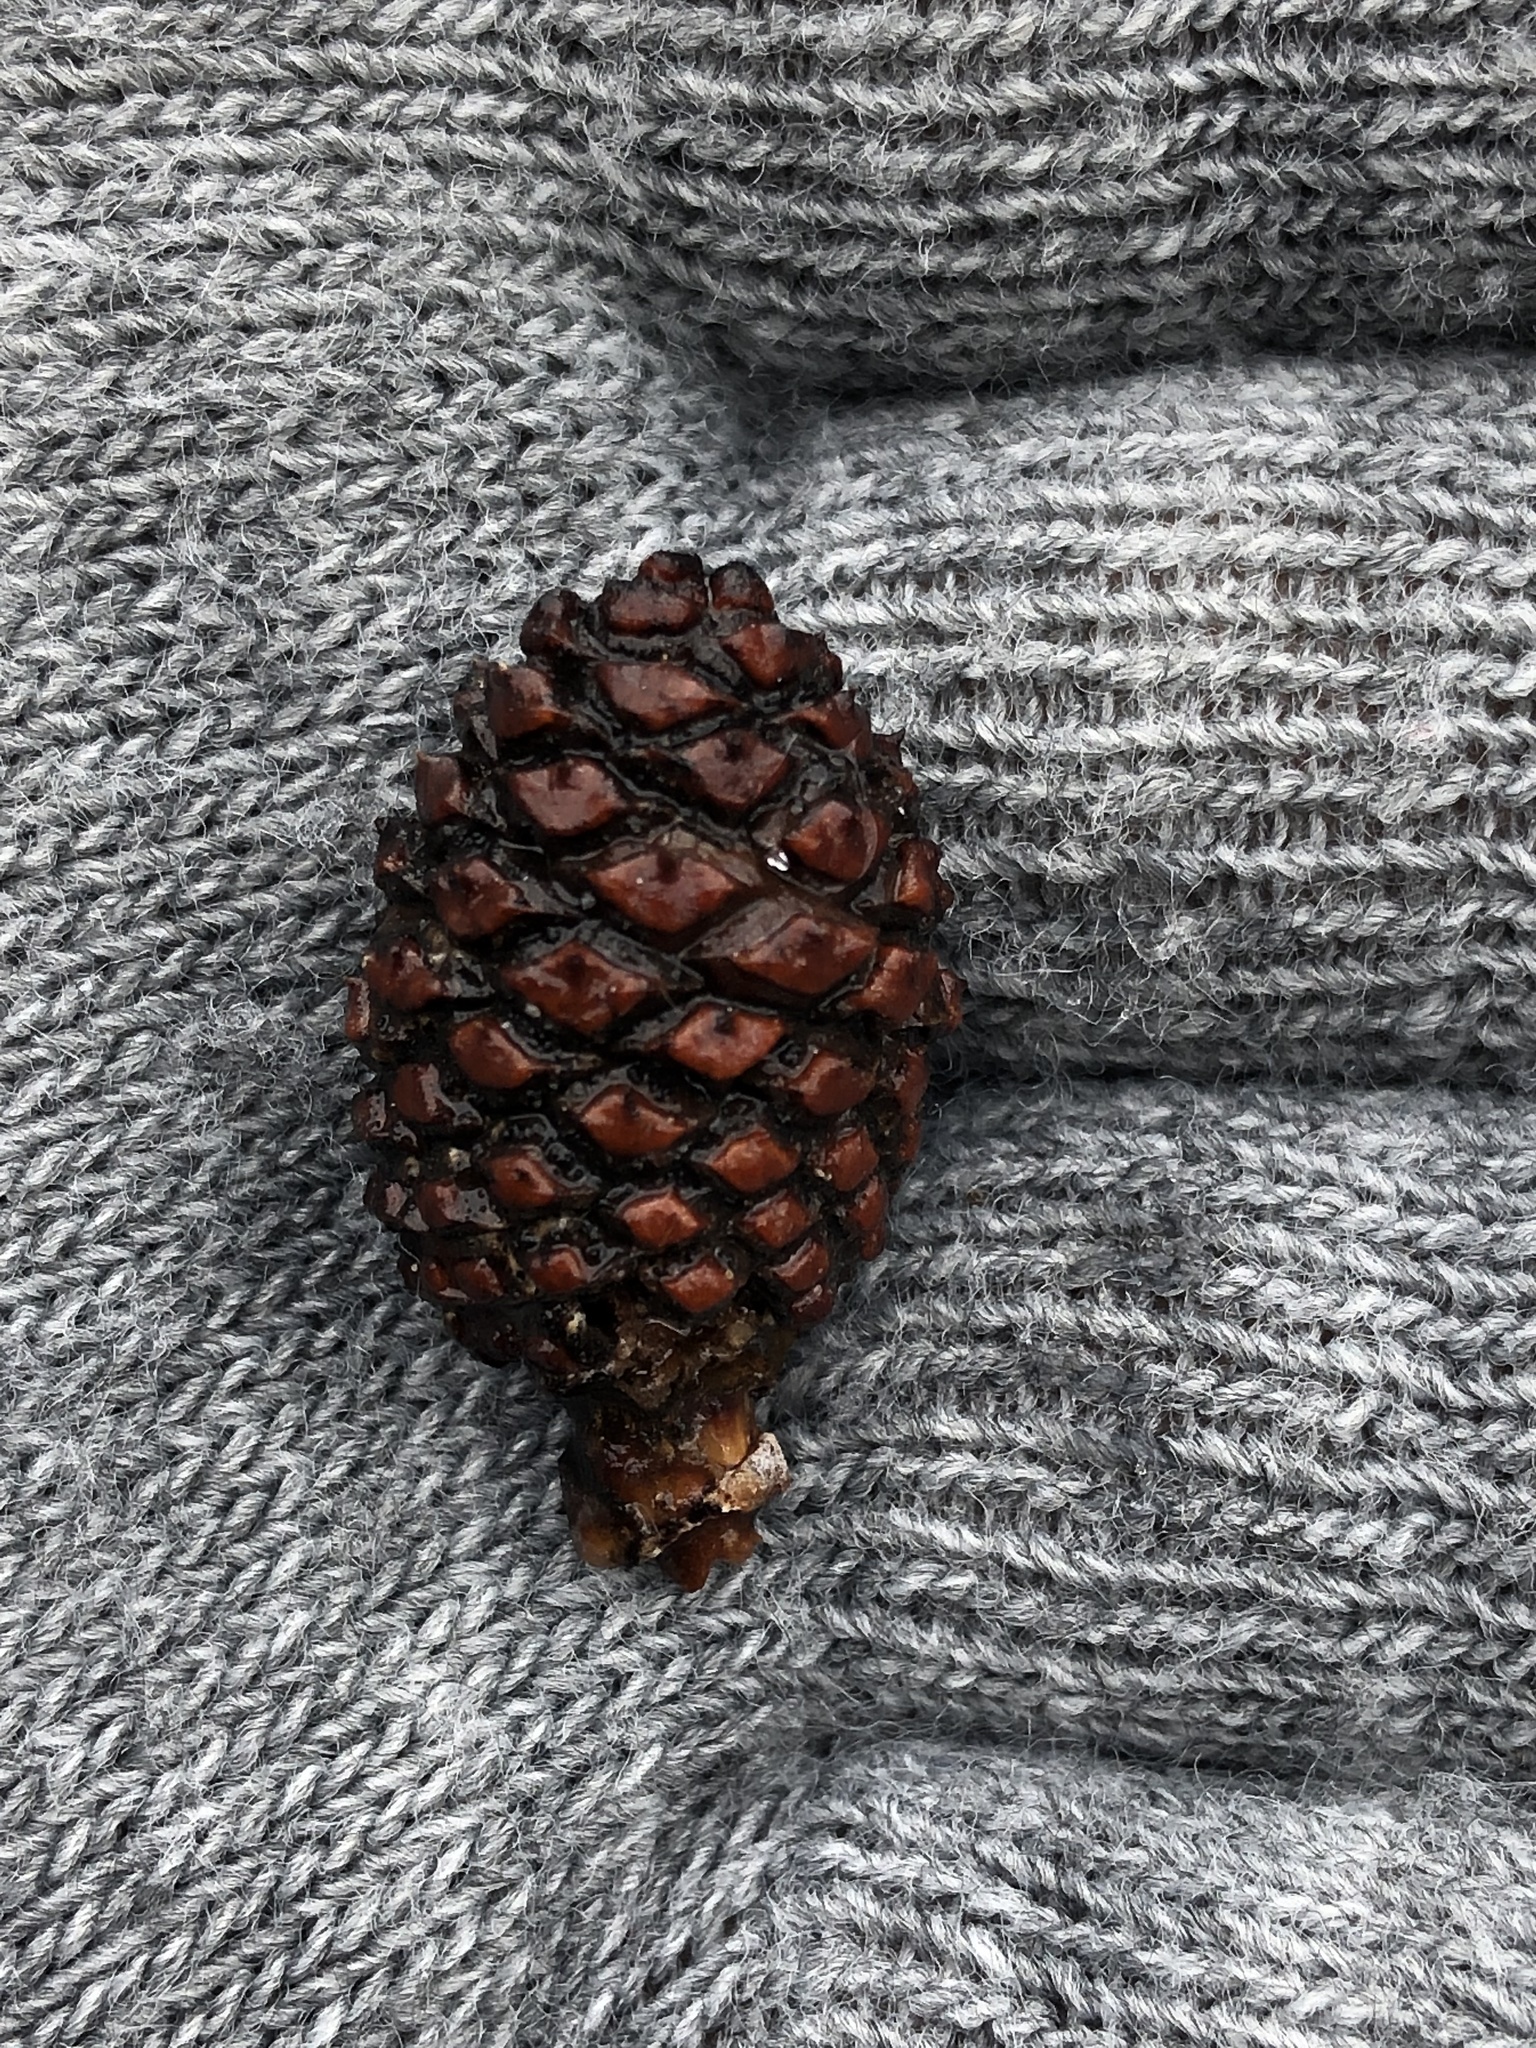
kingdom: Plantae
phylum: Tracheophyta
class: Liliopsida
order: Alismatales
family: Araceae
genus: Symplocarpus
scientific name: Symplocarpus foetidus
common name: Eastern skunk cabbage
